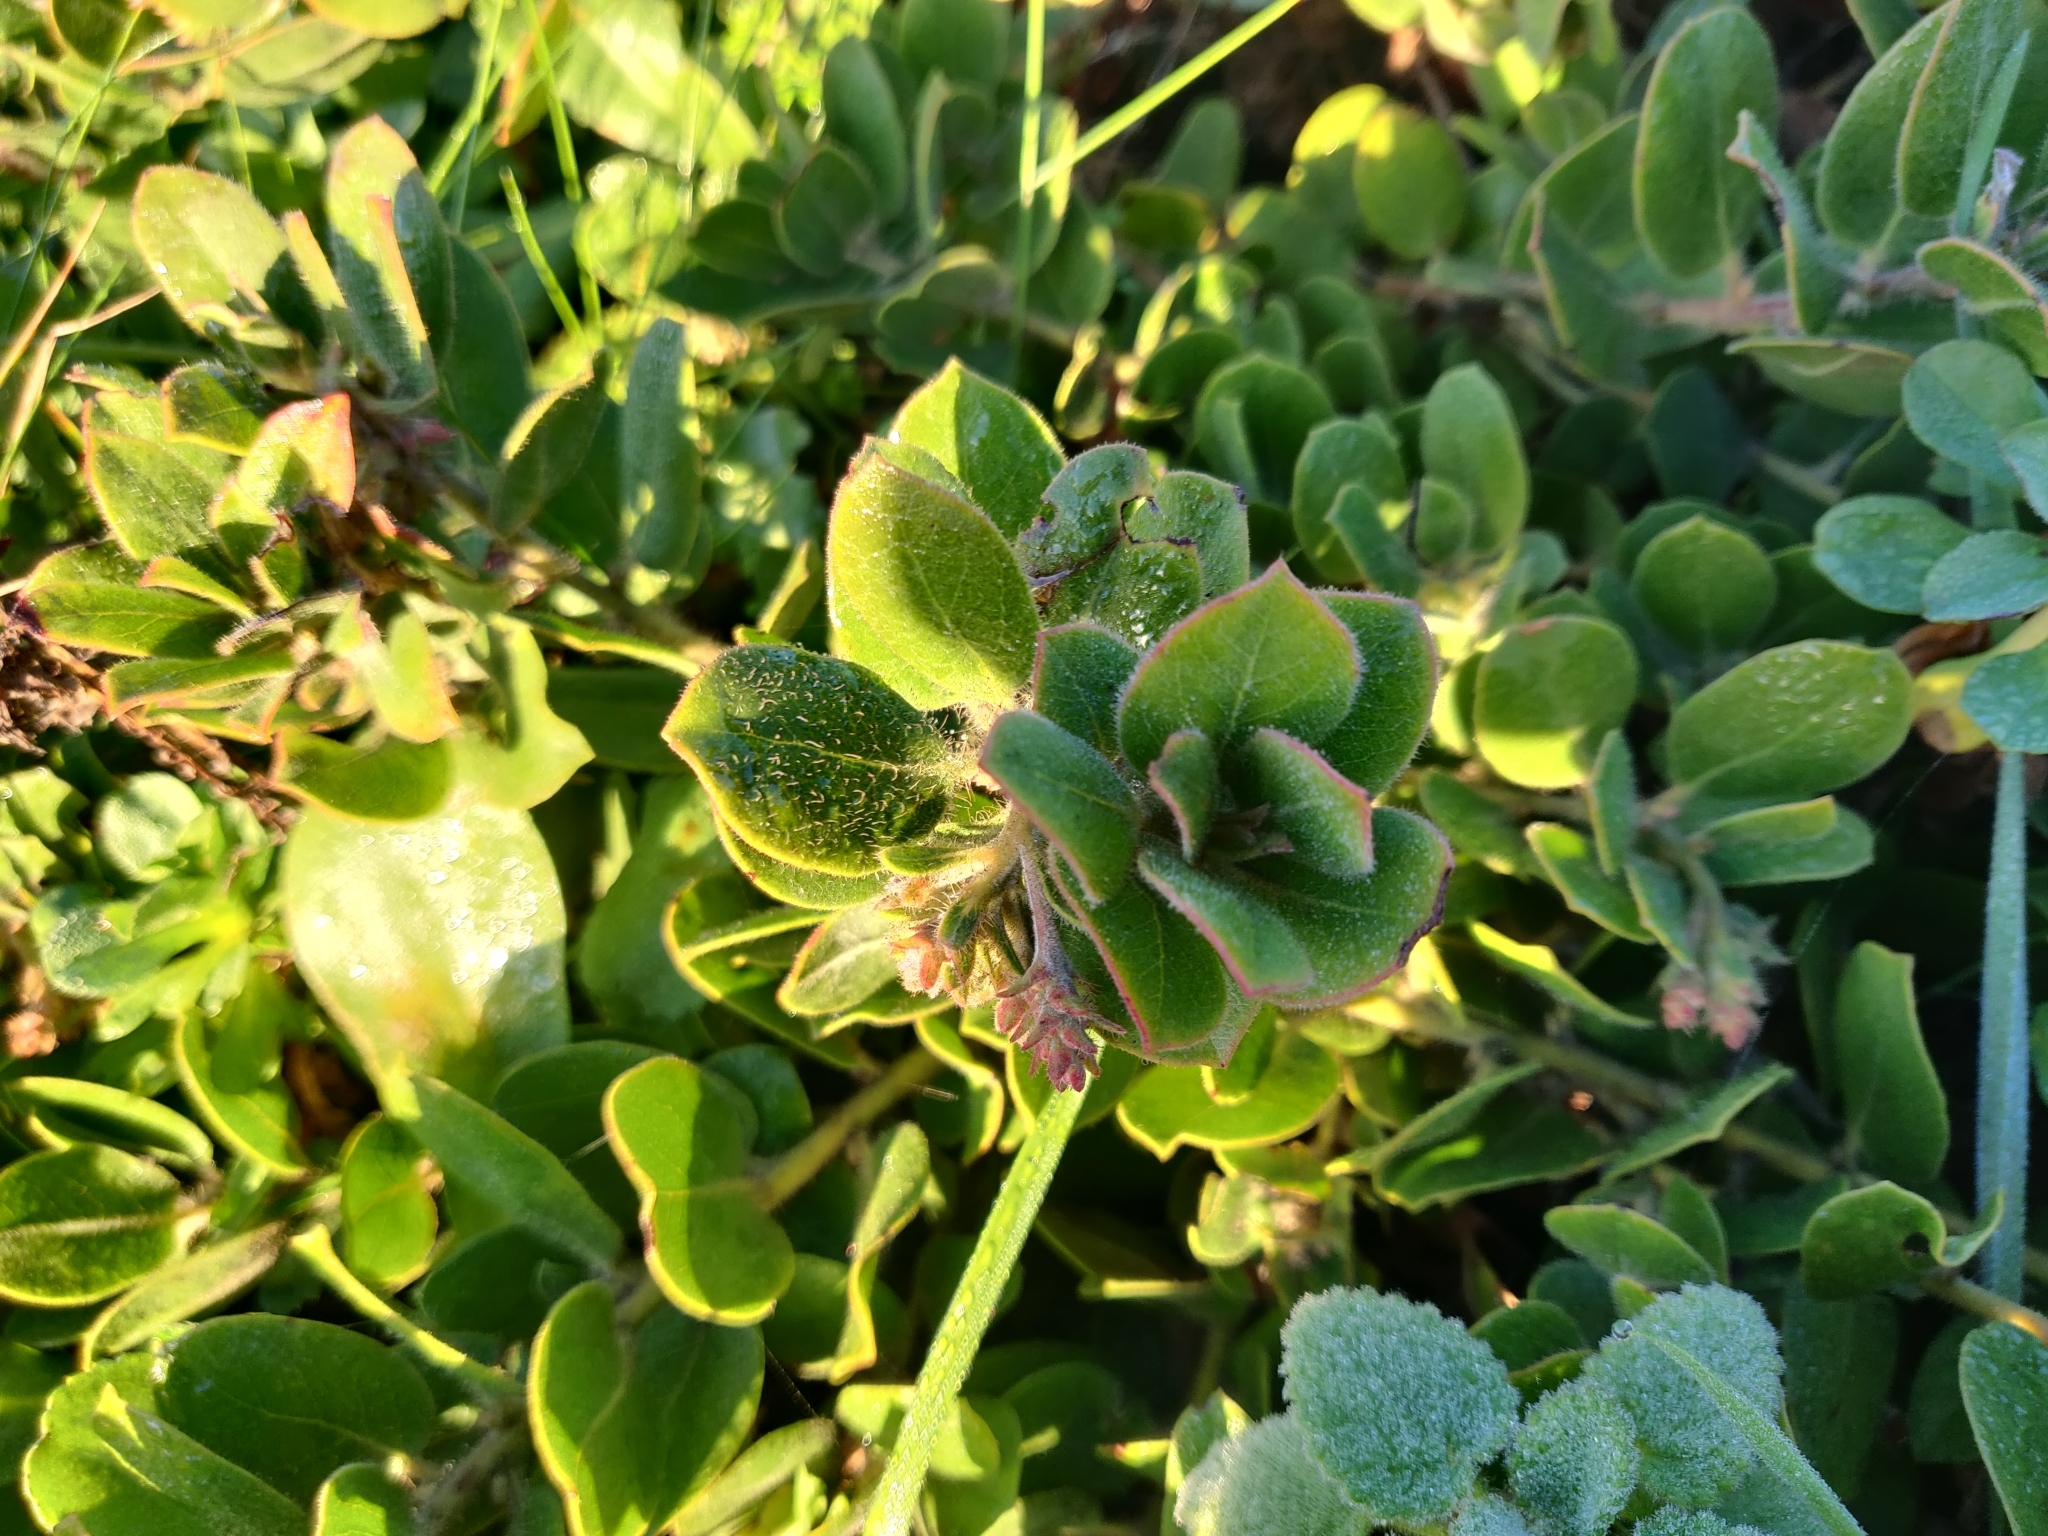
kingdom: Plantae
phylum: Tracheophyta
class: Magnoliopsida
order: Ericales
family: Ericaceae
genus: Arctostaphylos
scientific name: Arctostaphylos media
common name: Hybrid manzanita
